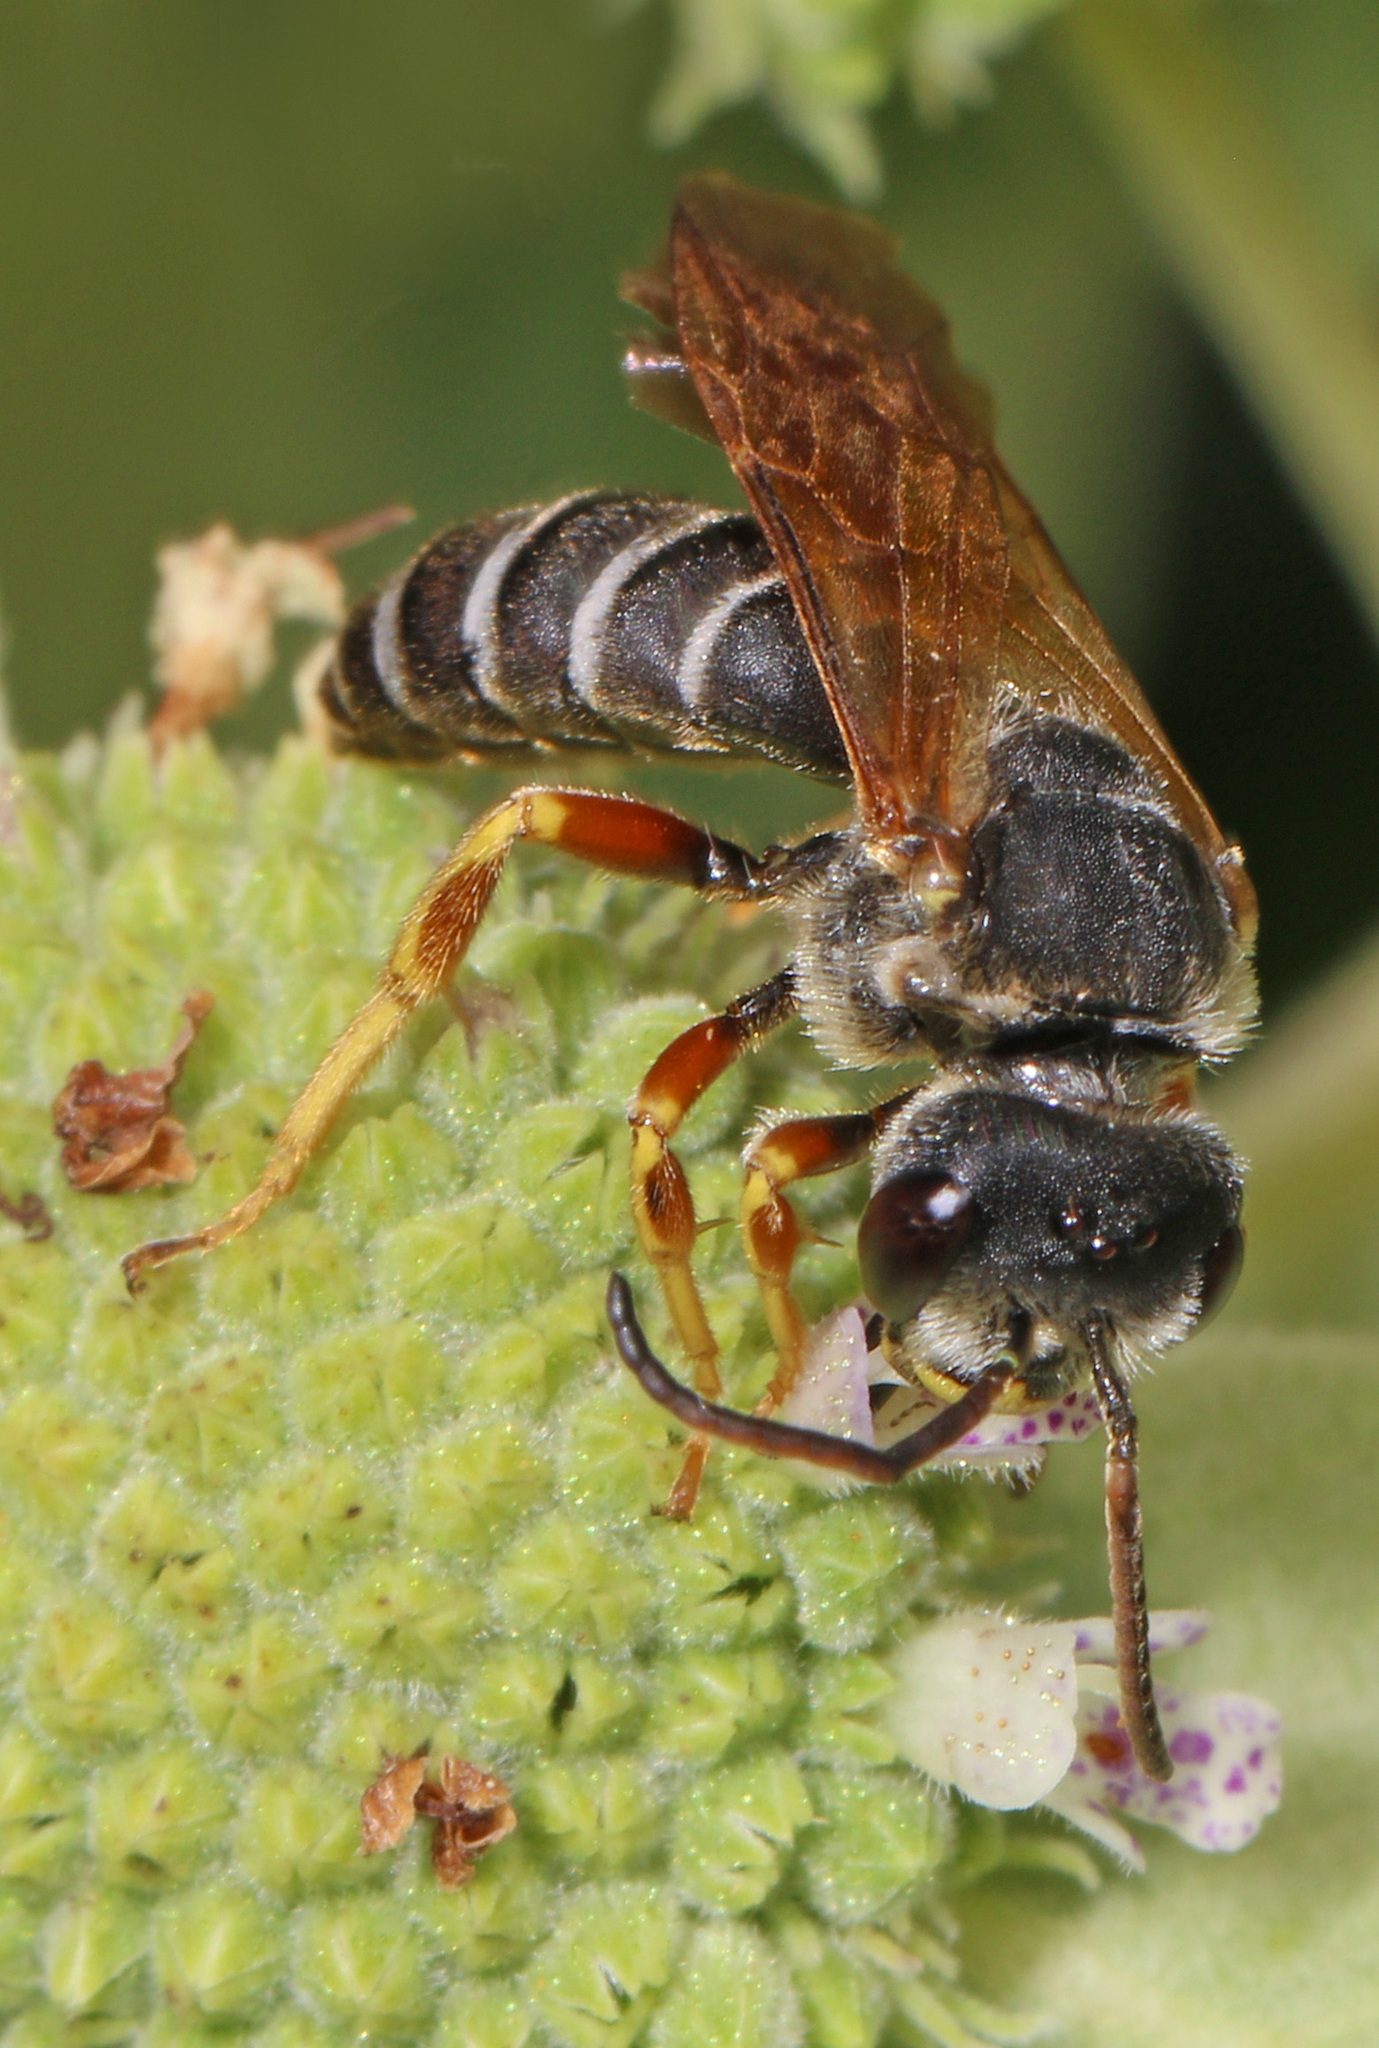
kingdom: Animalia
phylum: Arthropoda
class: Insecta
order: Hymenoptera
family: Halictidae
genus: Halictus
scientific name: Halictus parallelus
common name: Parallel-striped sweat bee
